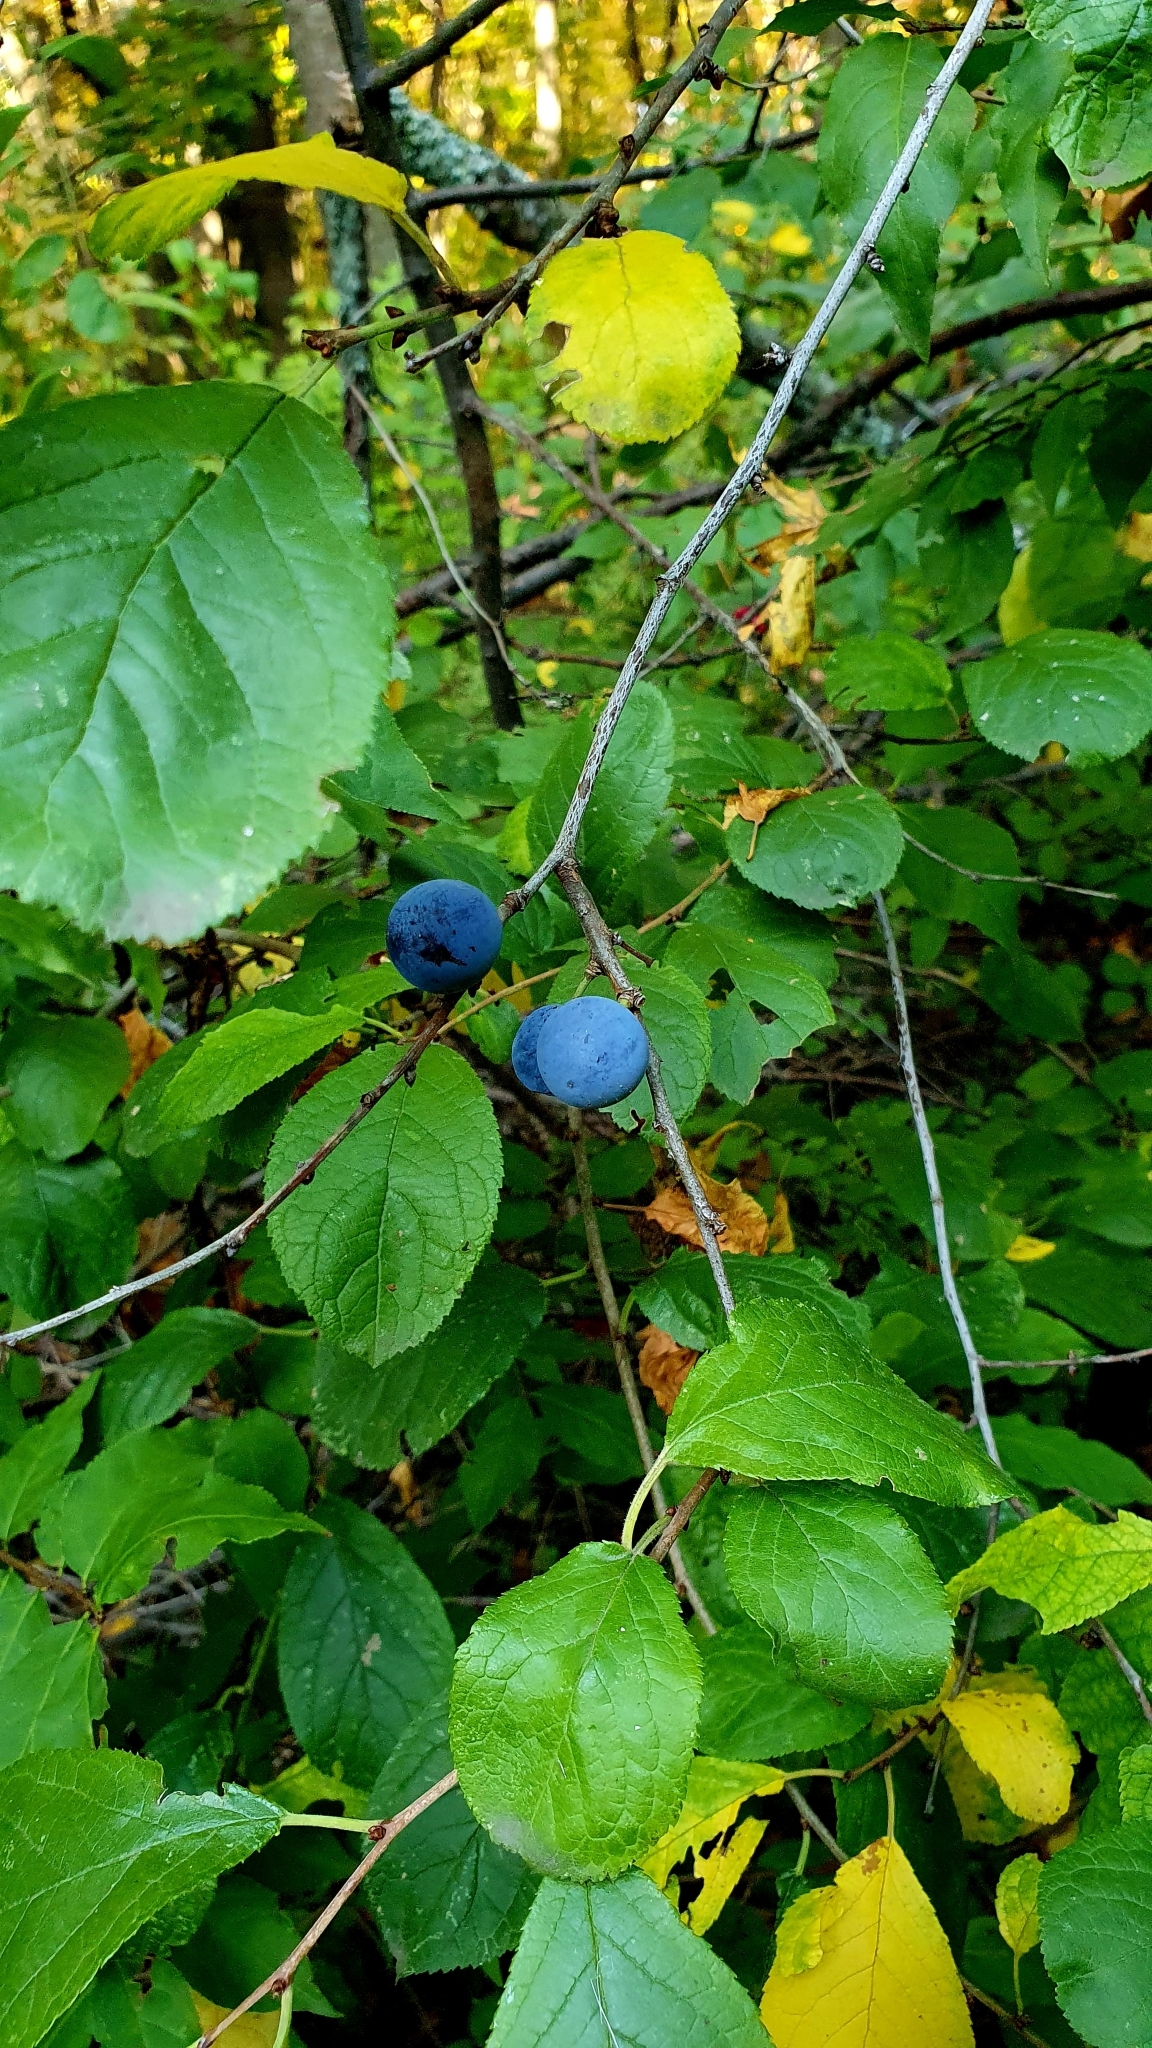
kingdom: Plantae
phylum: Tracheophyta
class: Magnoliopsida
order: Rosales
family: Rosaceae
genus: Prunus
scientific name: Prunus spinosa
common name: Blackthorn
